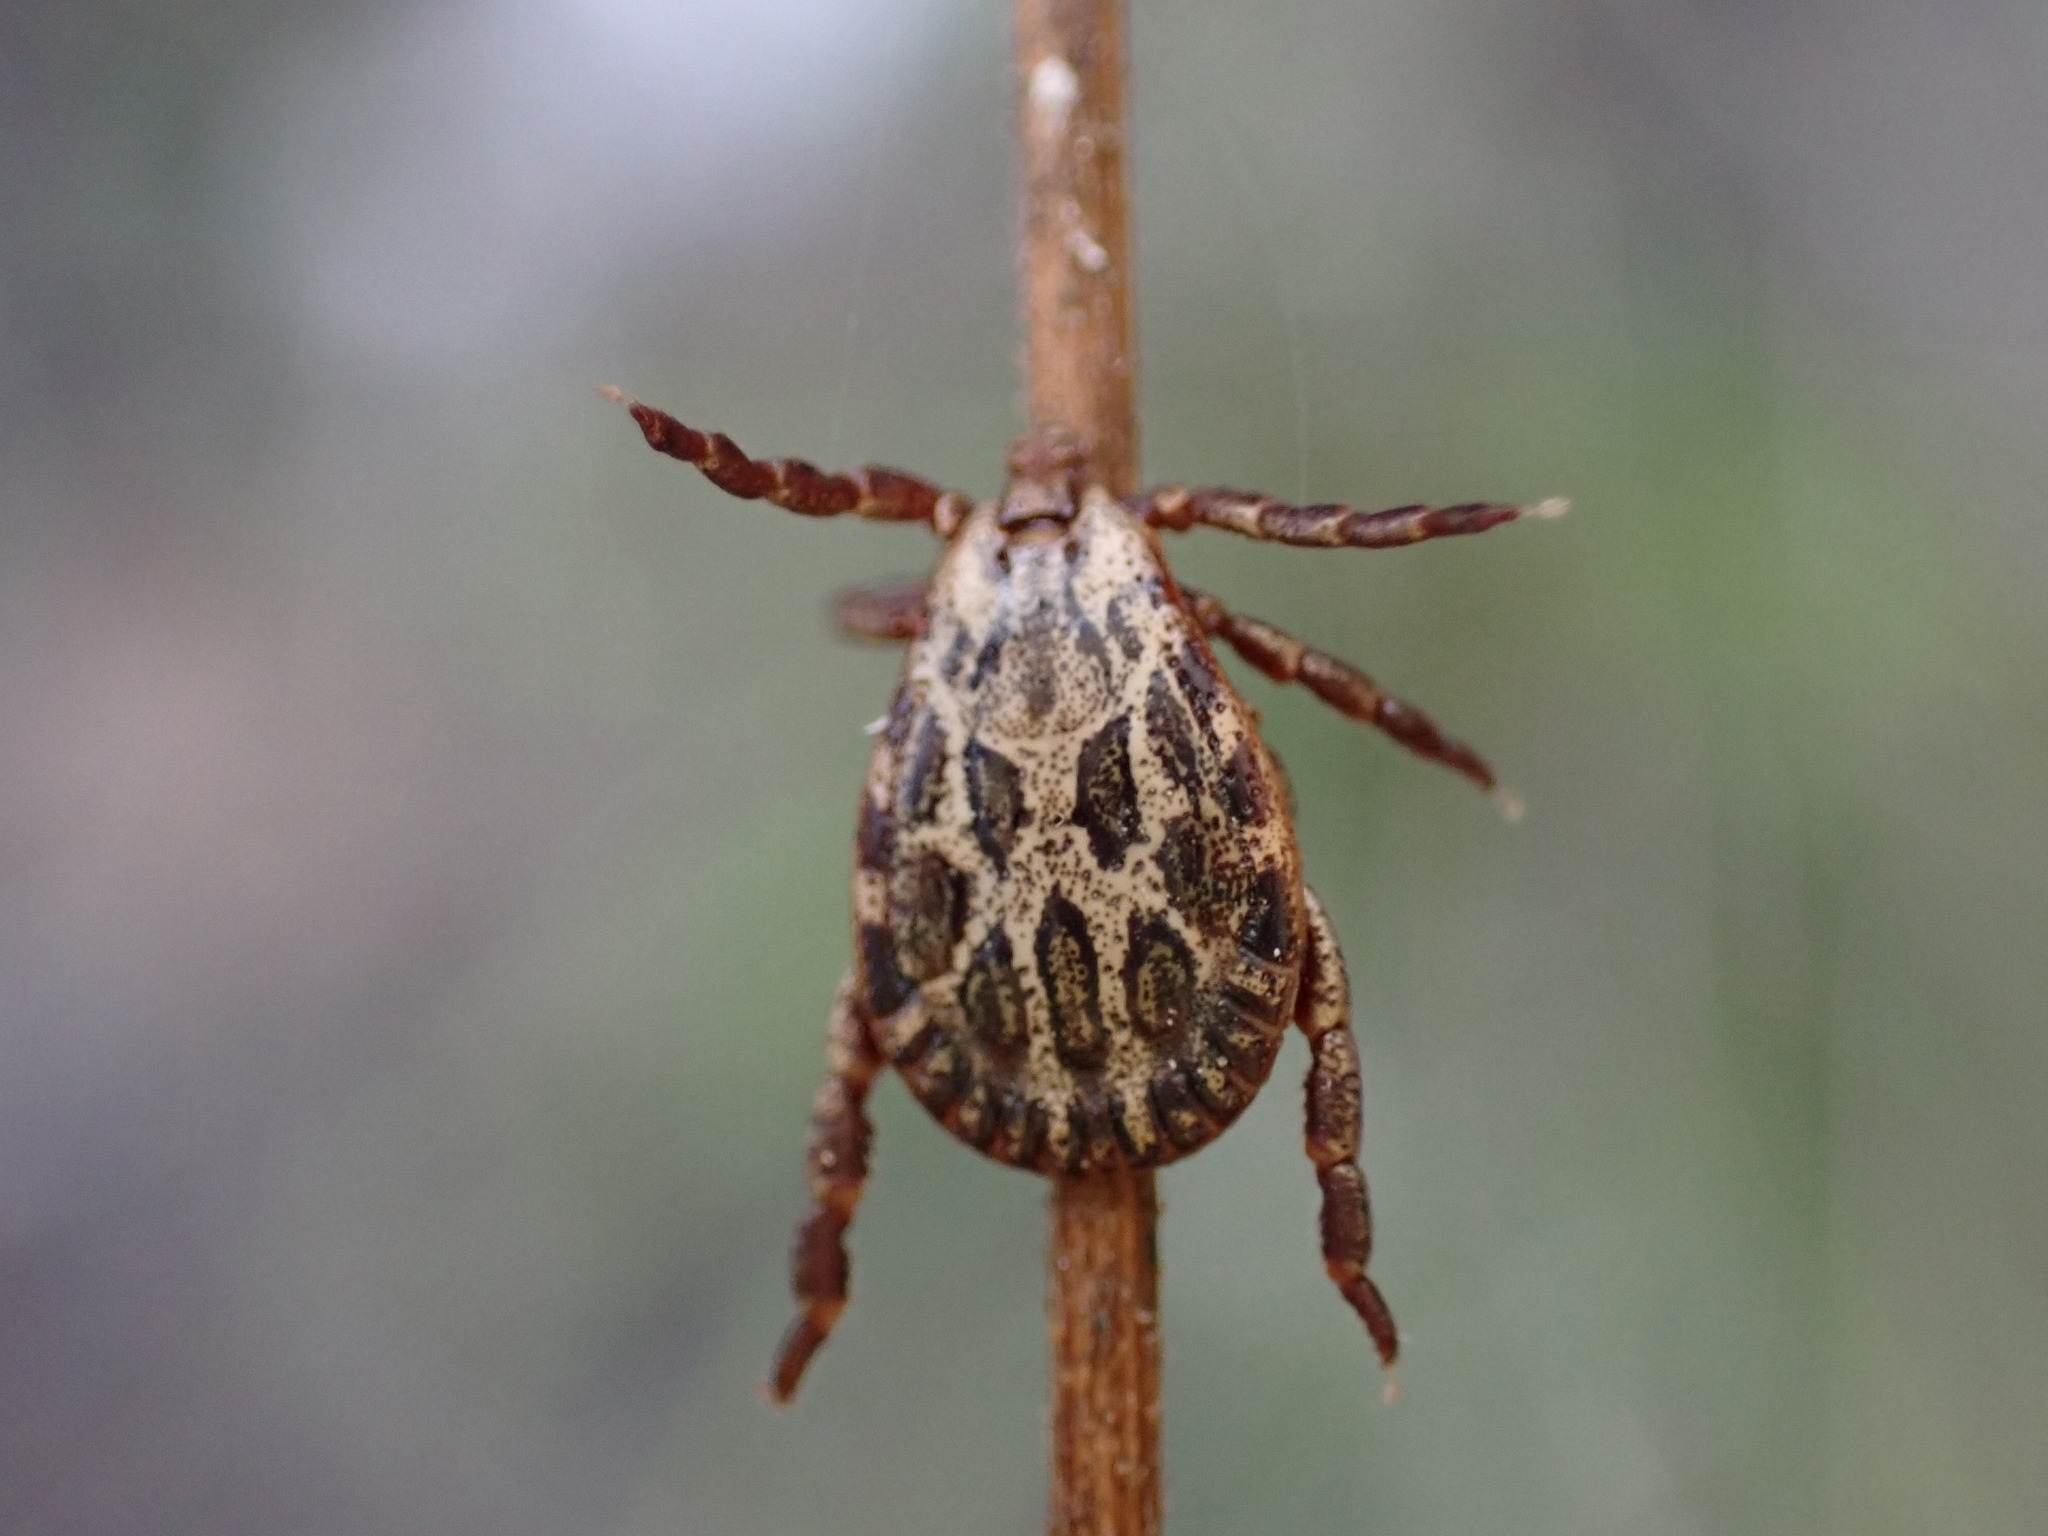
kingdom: Animalia
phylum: Arthropoda
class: Arachnida
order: Ixodida
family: Ixodidae
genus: Dermacentor
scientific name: Dermacentor marginatus
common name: Ornate sheep tick
